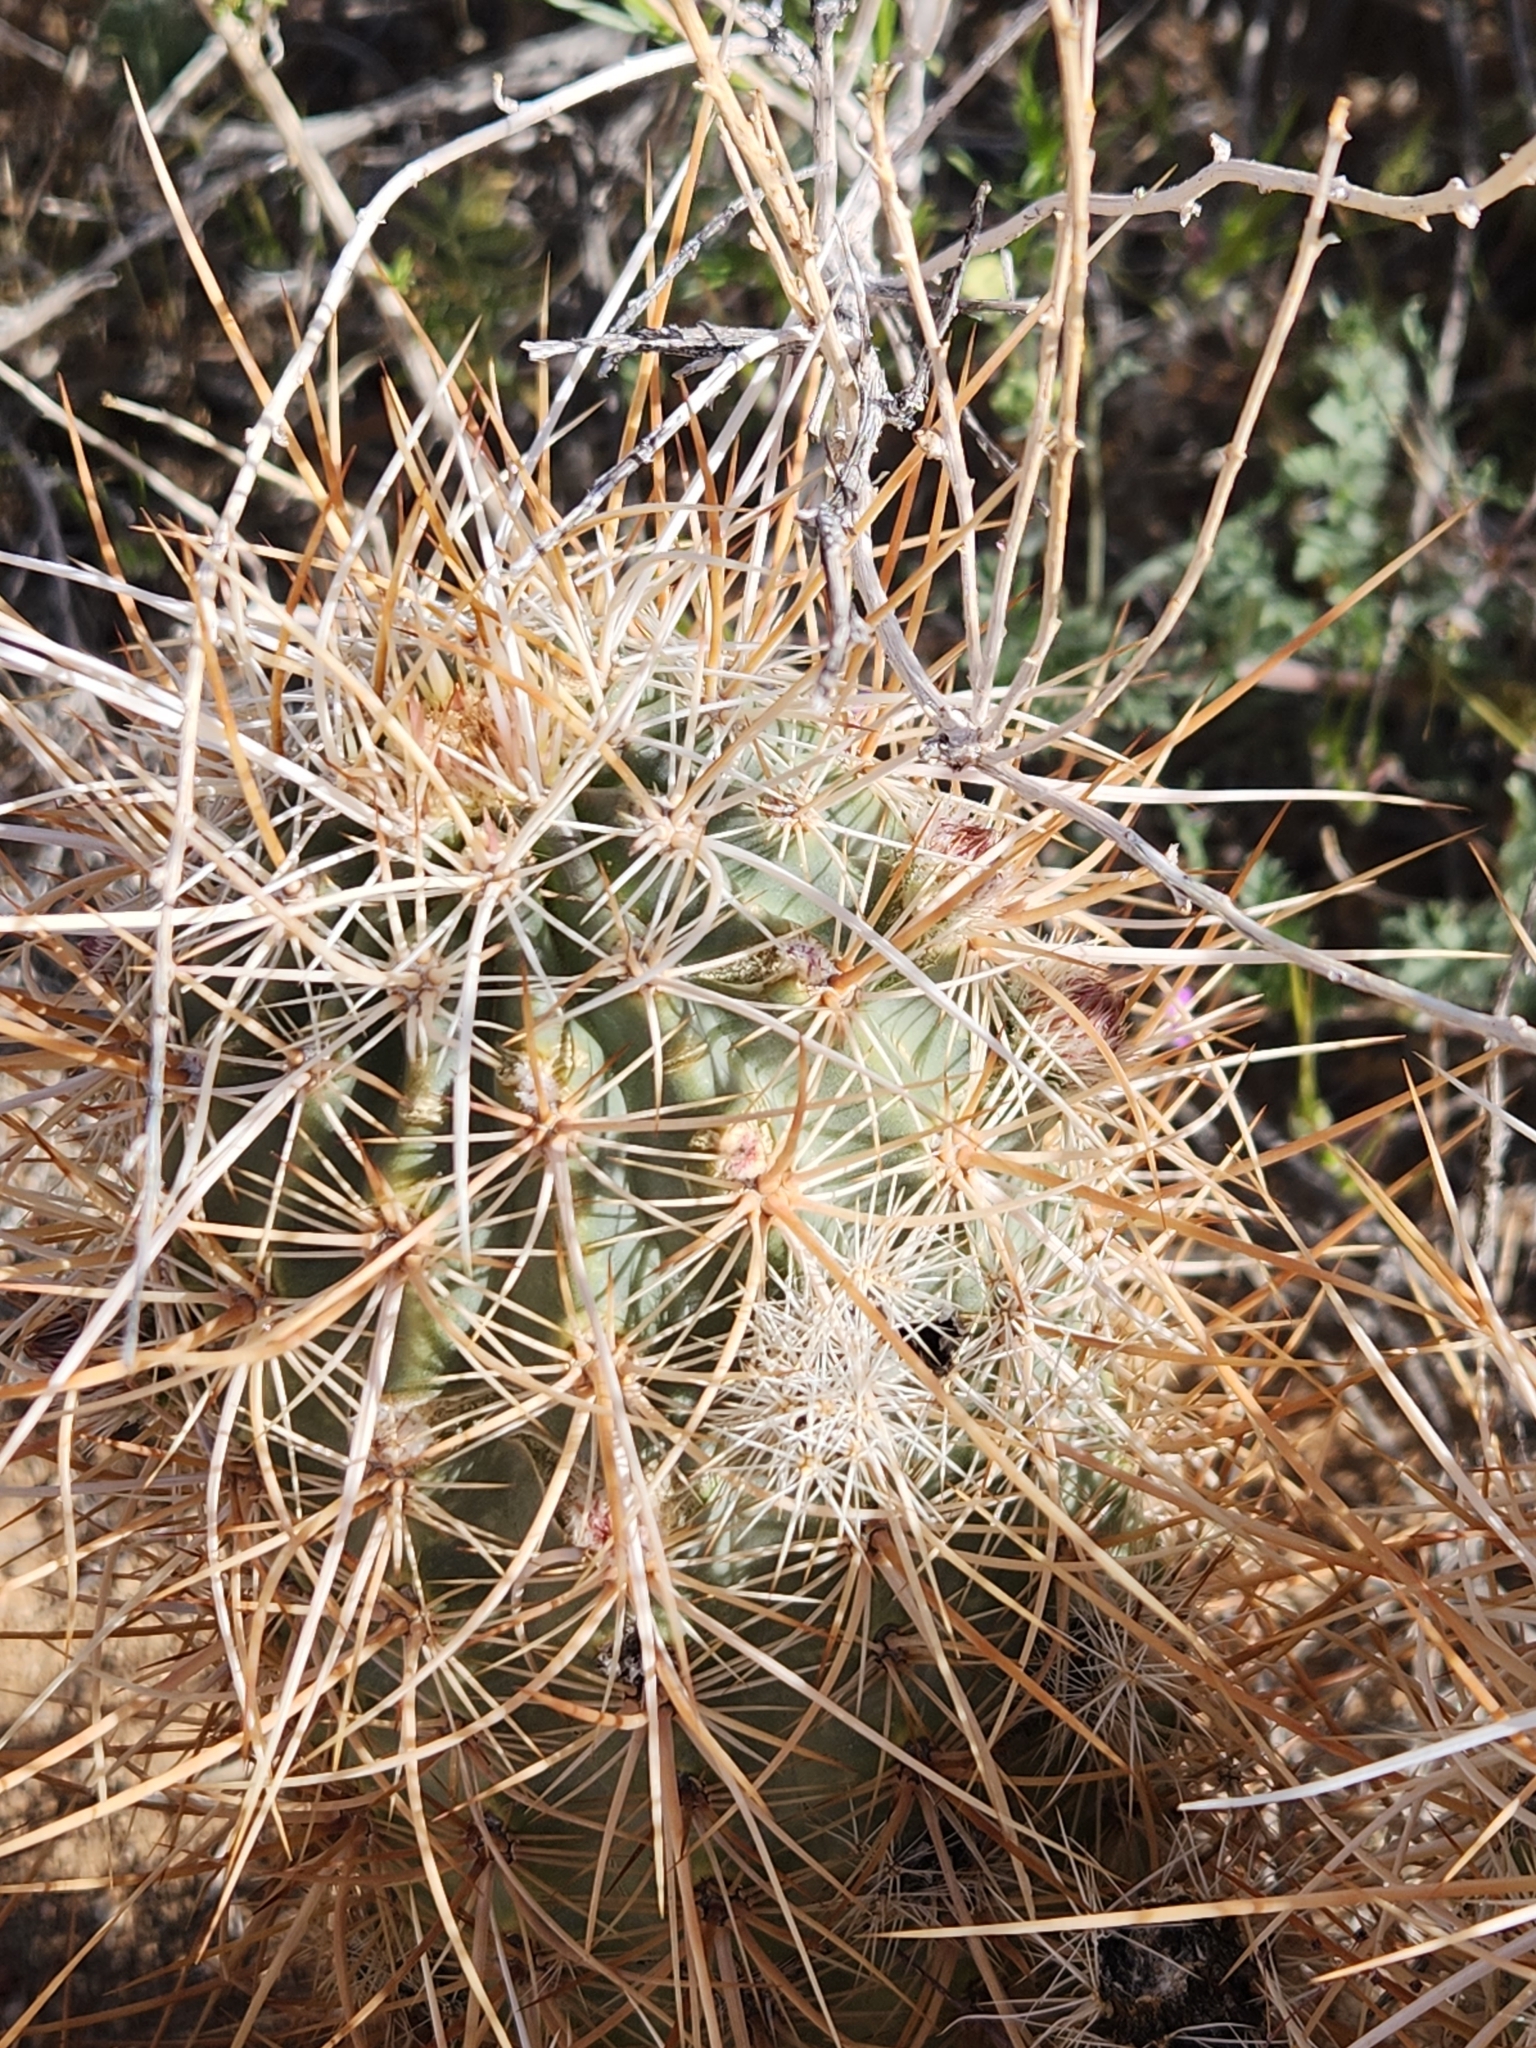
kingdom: Plantae
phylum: Tracheophyta
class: Magnoliopsida
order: Caryophyllales
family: Cactaceae
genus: Echinocereus
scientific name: Echinocereus engelmannii
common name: Engelmann's hedgehog cactus
